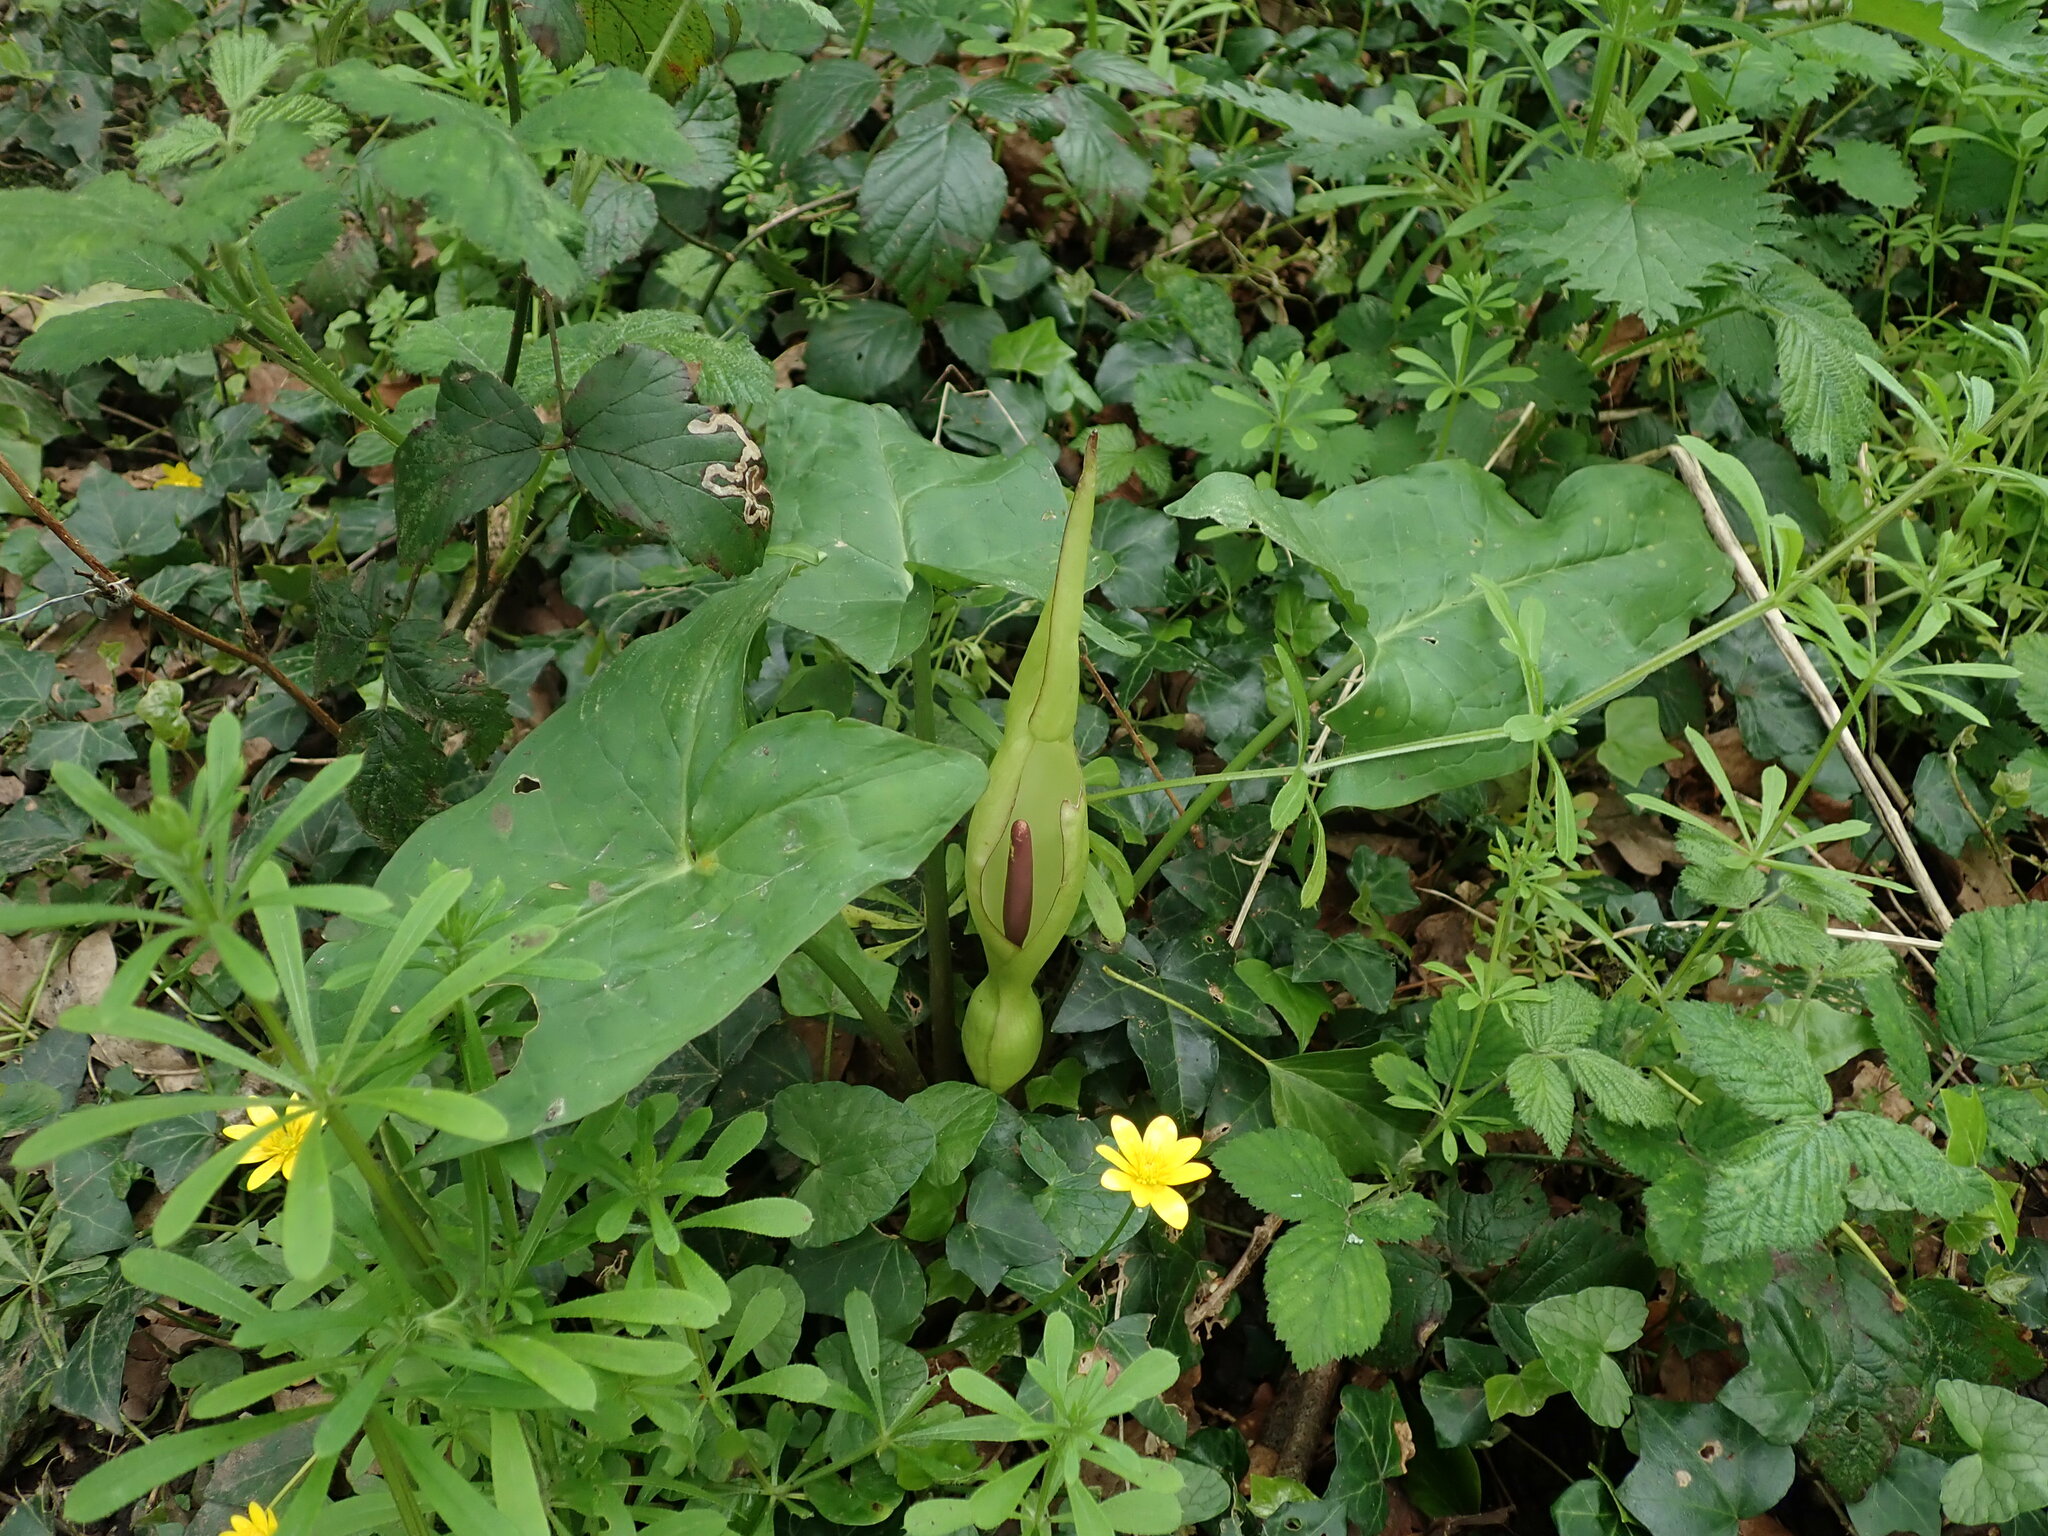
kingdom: Plantae
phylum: Tracheophyta
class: Liliopsida
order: Alismatales
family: Araceae
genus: Arum
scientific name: Arum maculatum
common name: Lords-and-ladies
